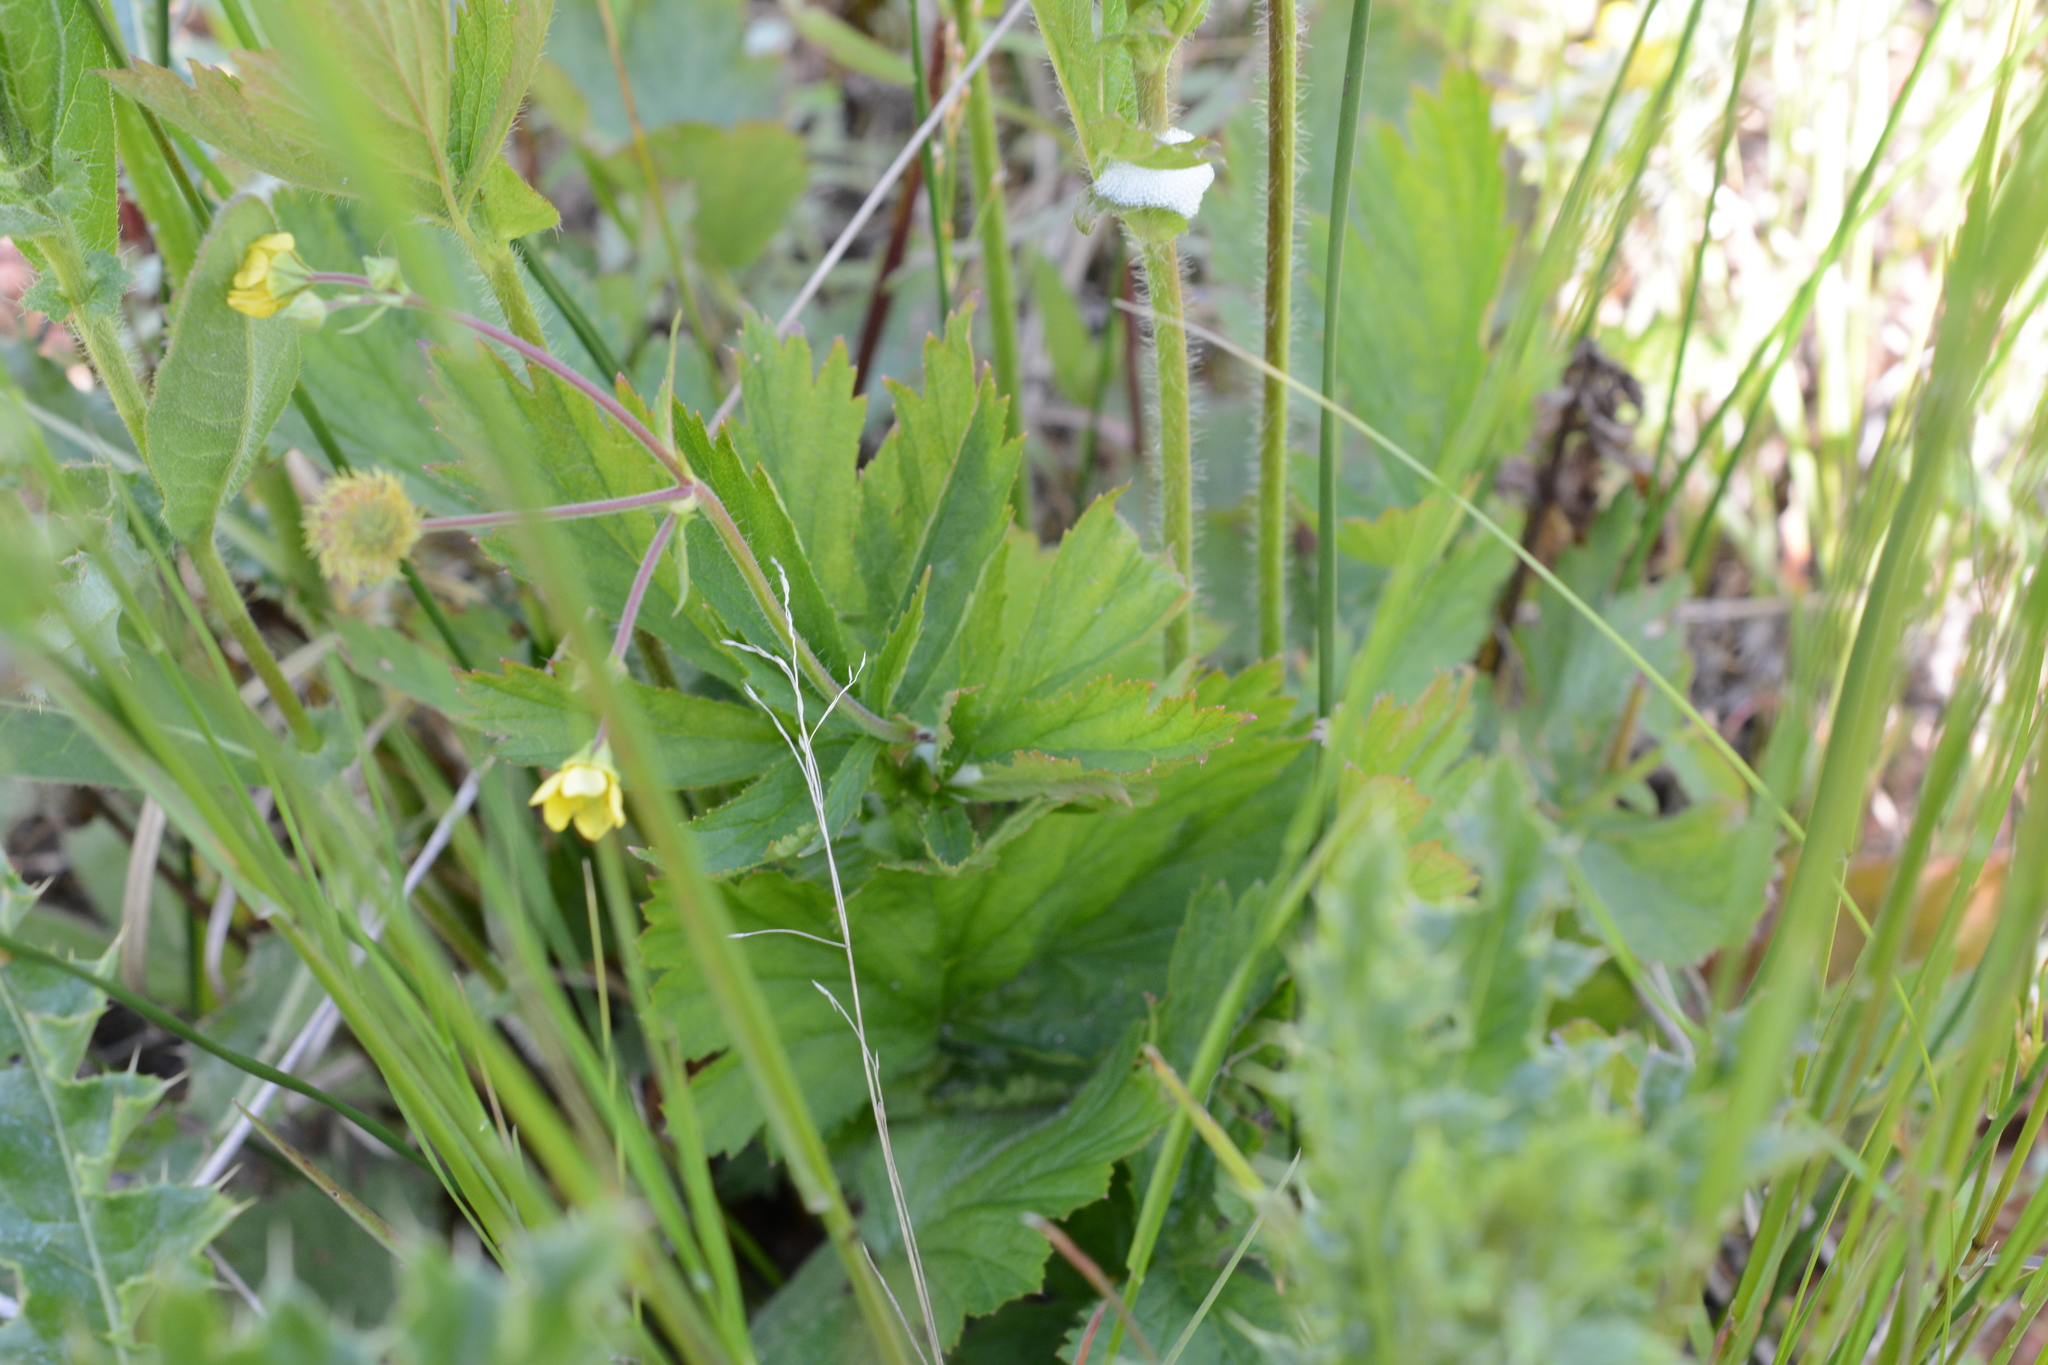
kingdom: Plantae
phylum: Tracheophyta
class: Magnoliopsida
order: Rosales
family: Rosaceae
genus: Geum
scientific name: Geum macrophyllum
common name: Large-leaved avens
